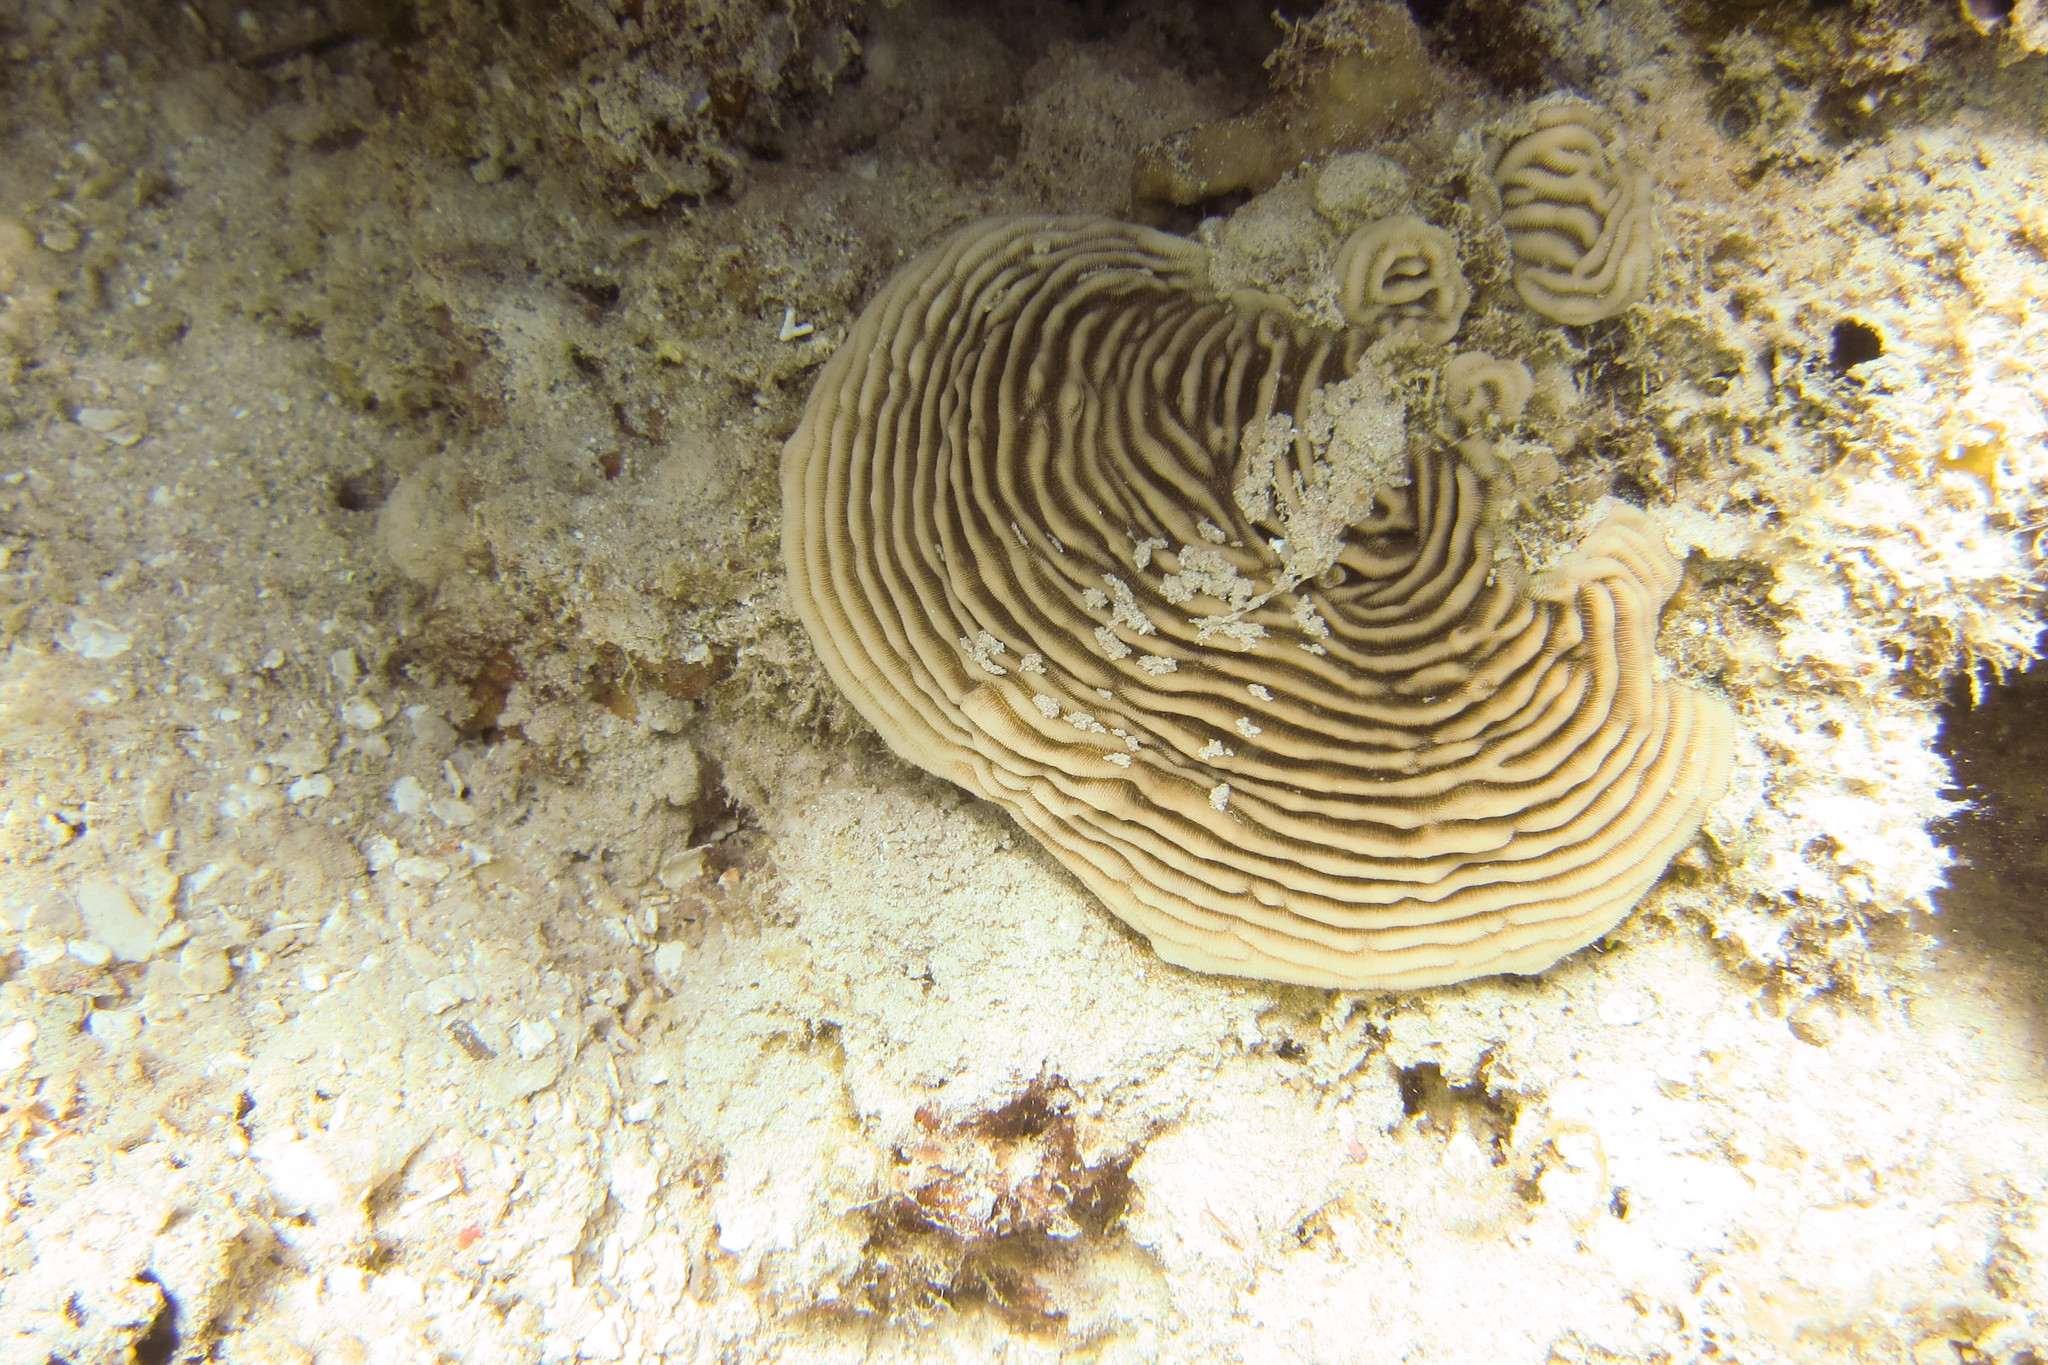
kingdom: Animalia
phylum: Cnidaria
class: Anthozoa
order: Scleractinia
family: Pachyseridae
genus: Pachyseris
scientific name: Pachyseris speciosa
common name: Serpent coral
